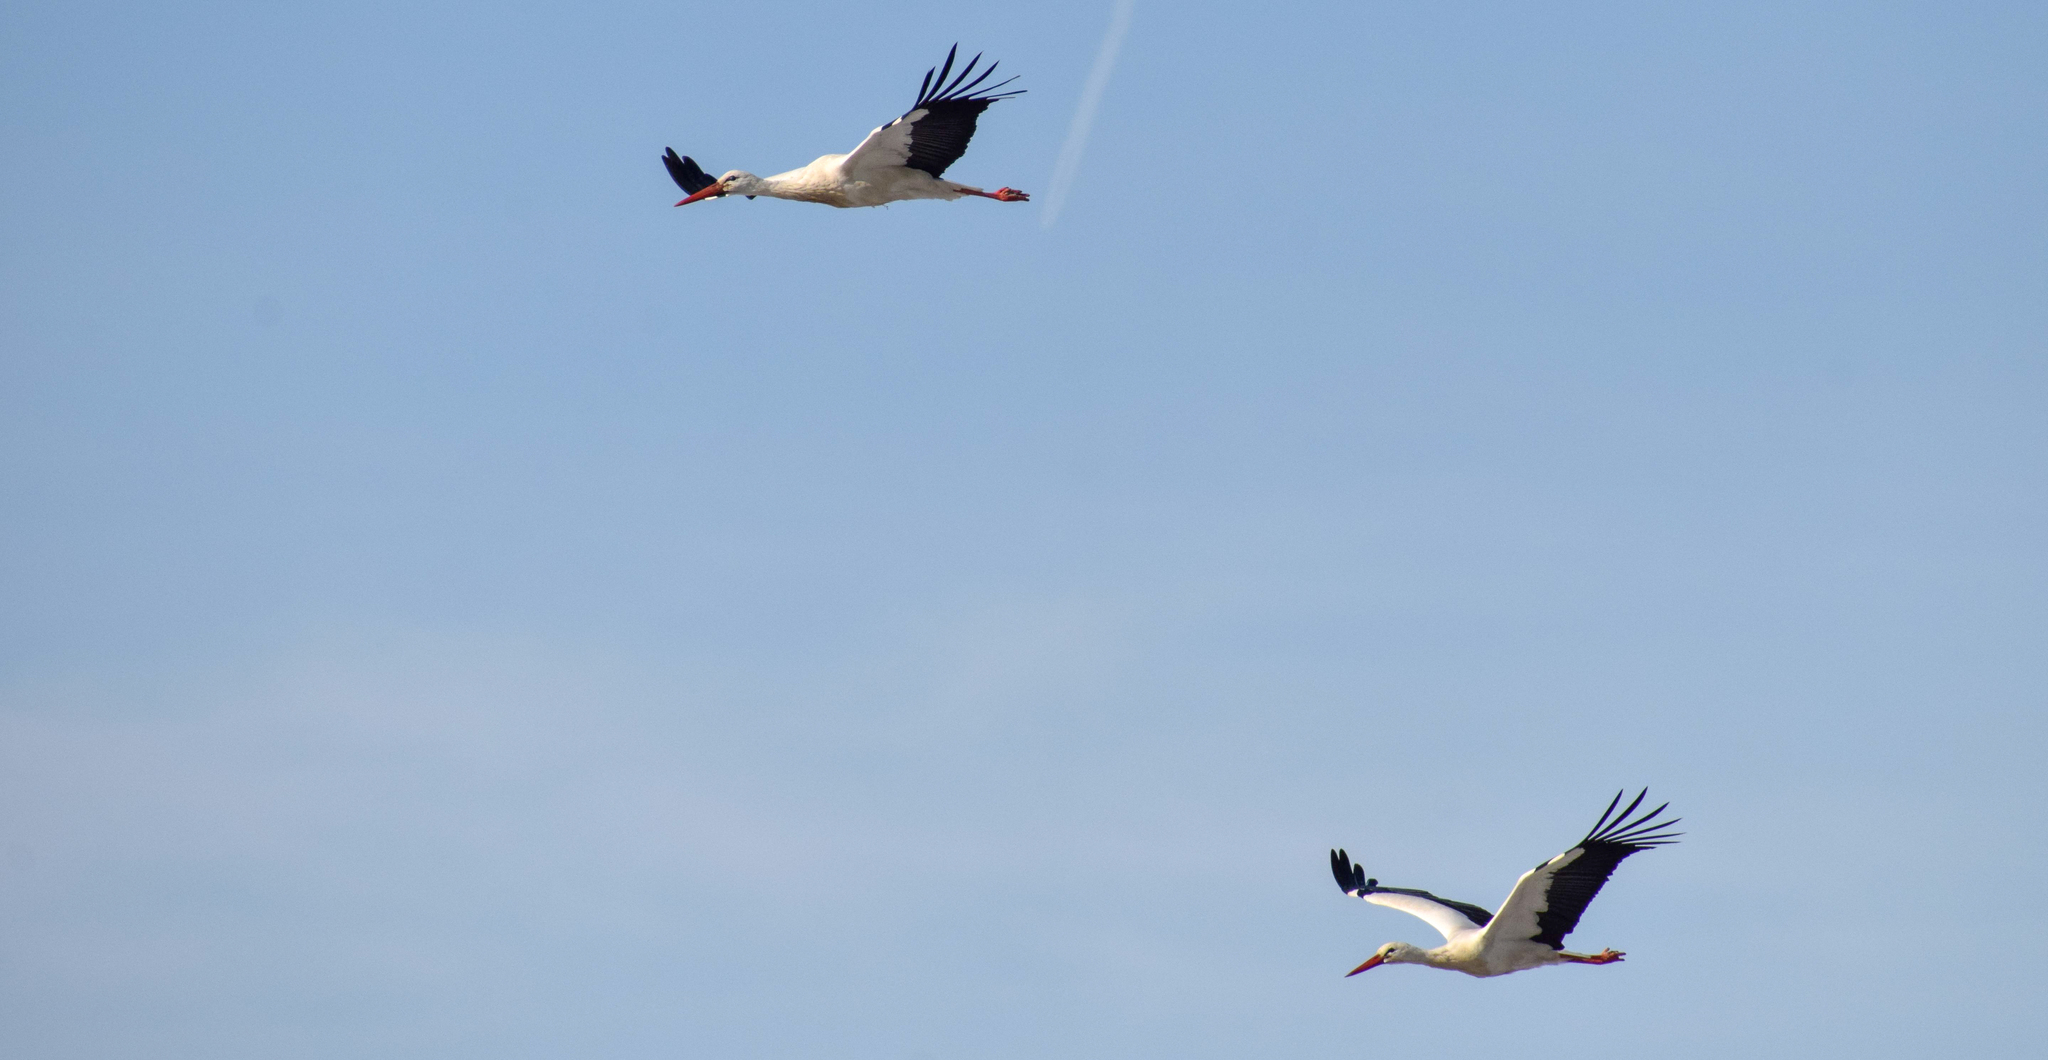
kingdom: Animalia
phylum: Chordata
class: Aves
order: Ciconiiformes
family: Ciconiidae
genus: Ciconia
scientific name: Ciconia ciconia
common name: White stork
